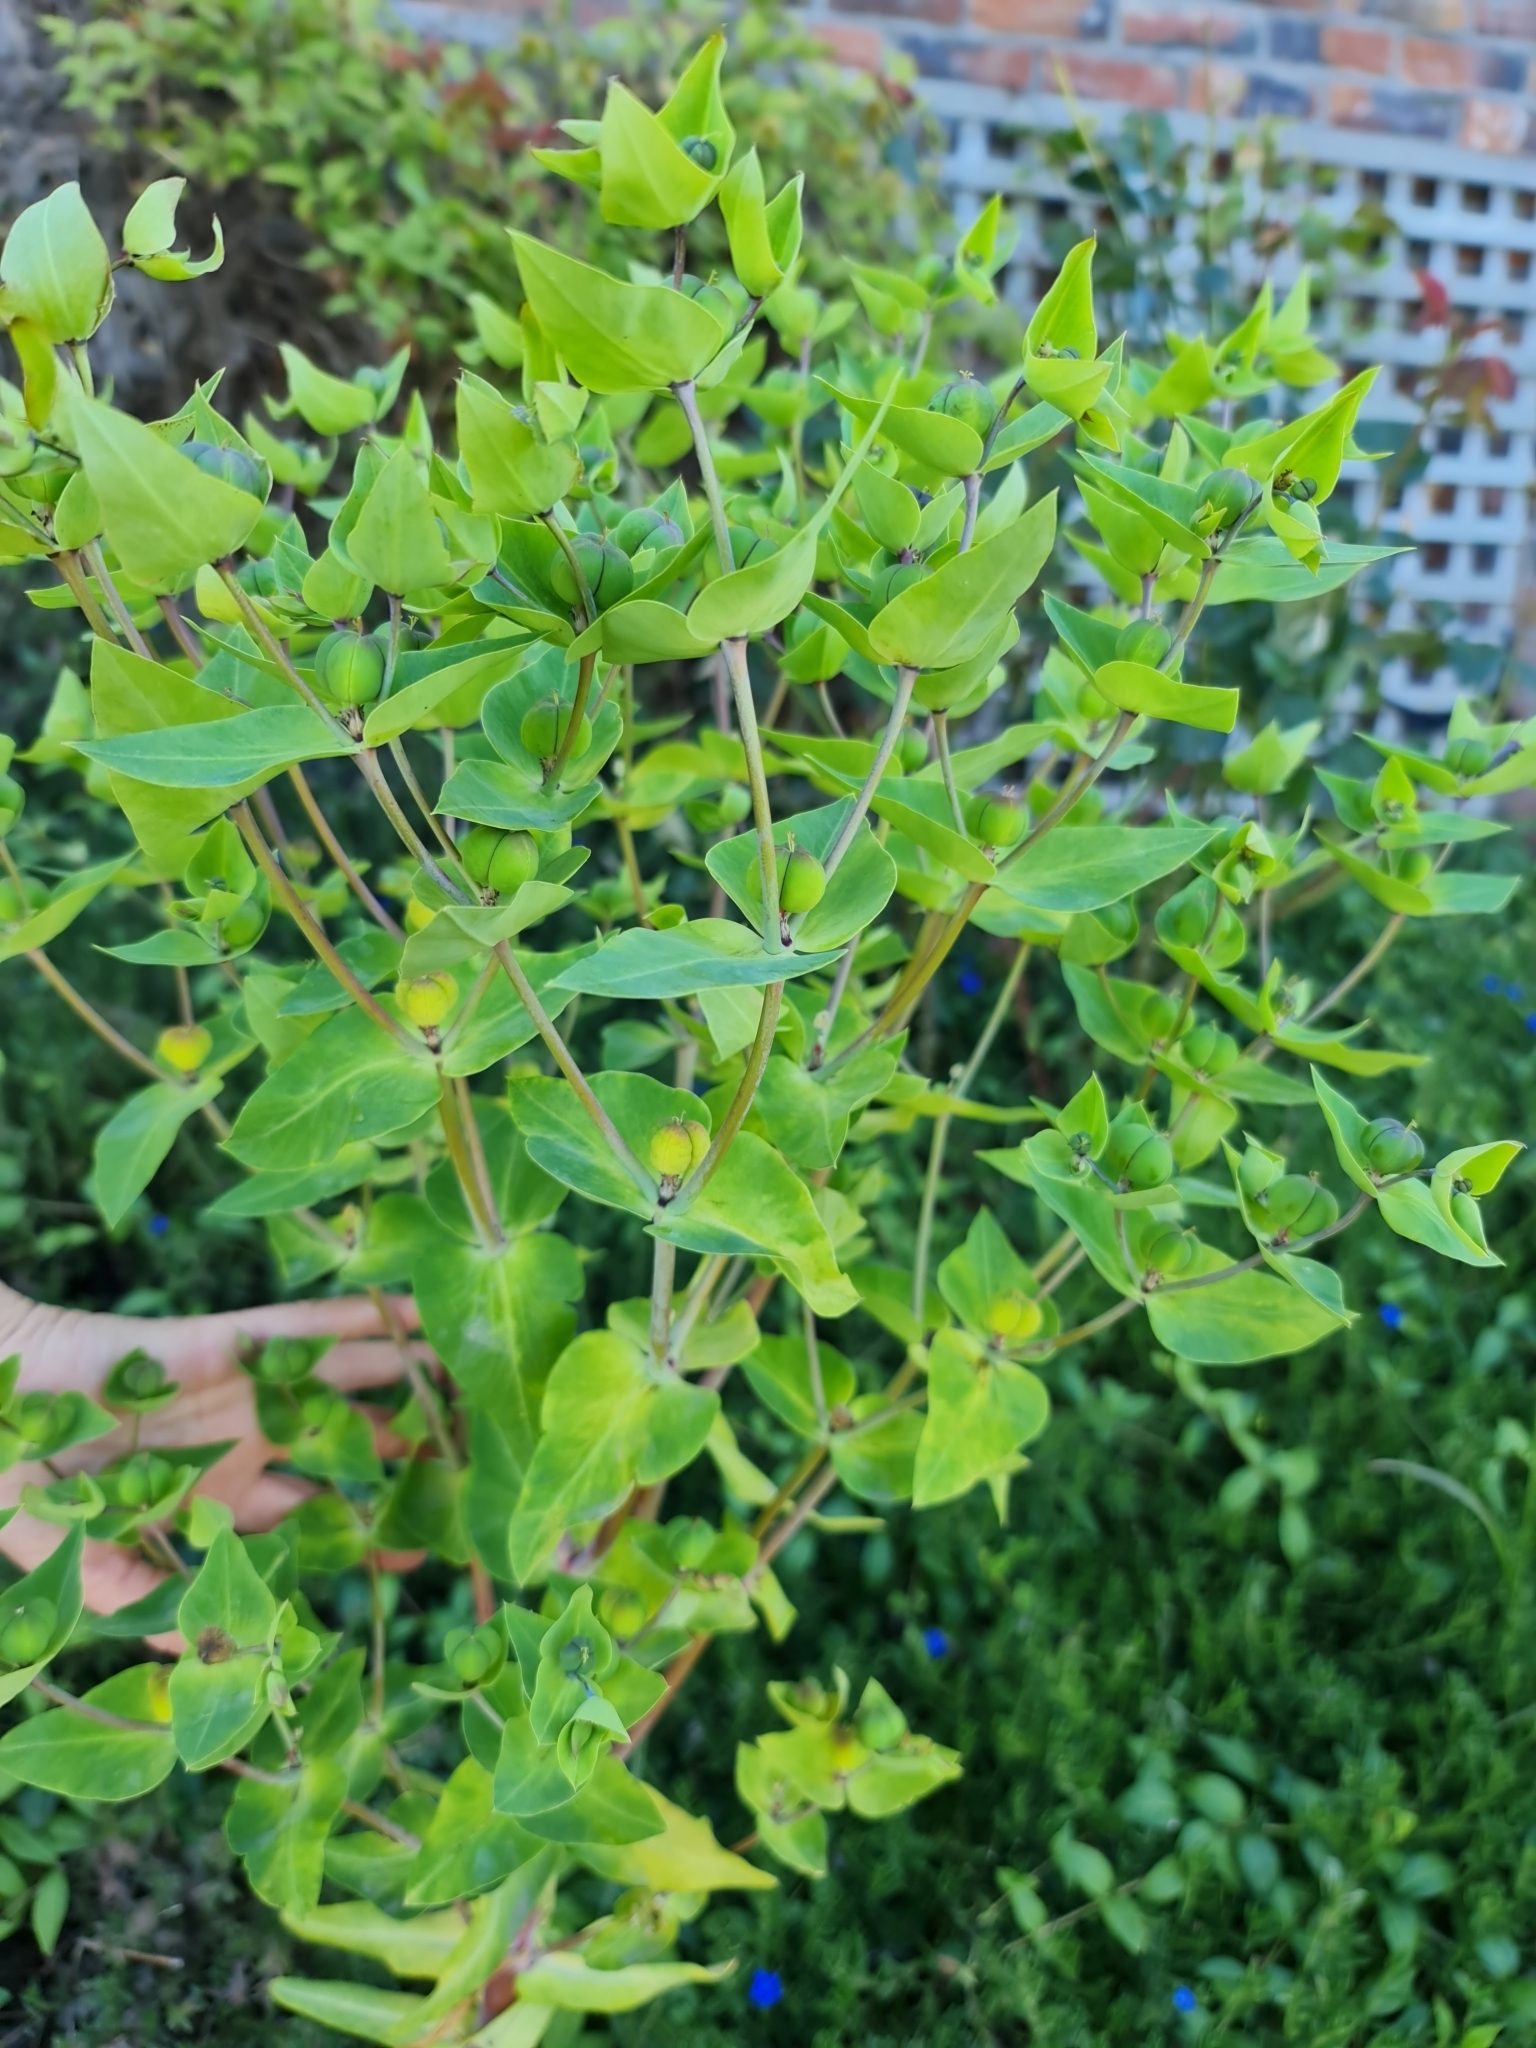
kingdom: Plantae
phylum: Tracheophyta
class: Magnoliopsida
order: Malpighiales
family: Euphorbiaceae
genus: Euphorbia
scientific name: Euphorbia lathyris
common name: Caper spurge
